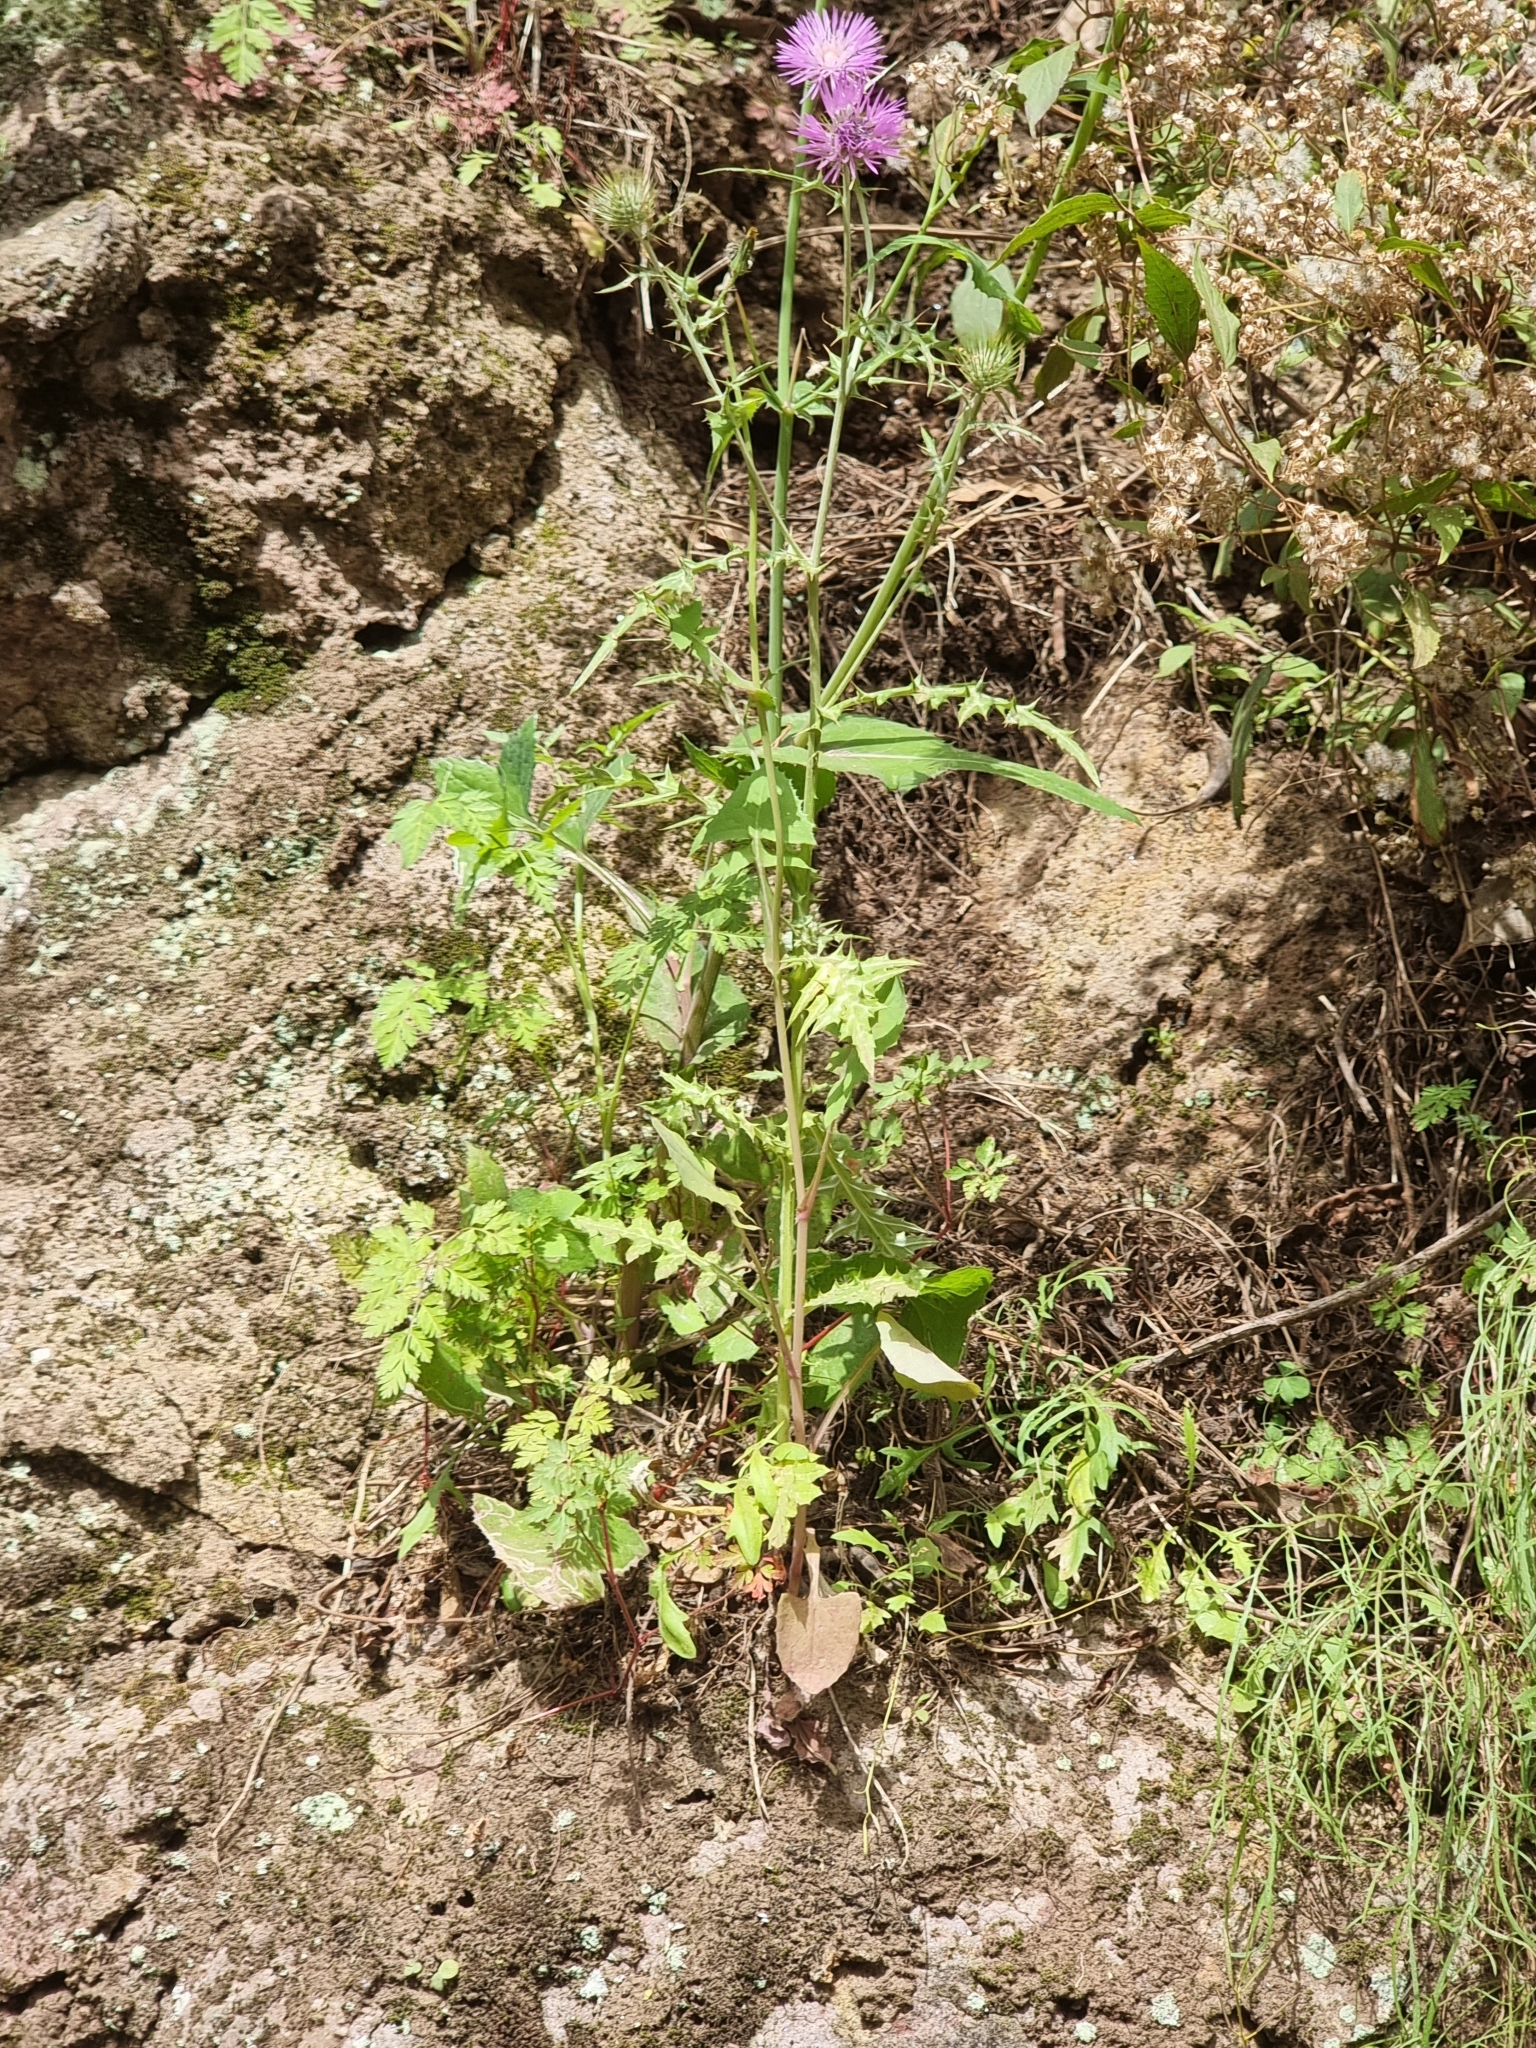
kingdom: Plantae
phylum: Tracheophyta
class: Magnoliopsida
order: Asterales
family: Asteraceae
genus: Galactites
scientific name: Galactites tomentosa
